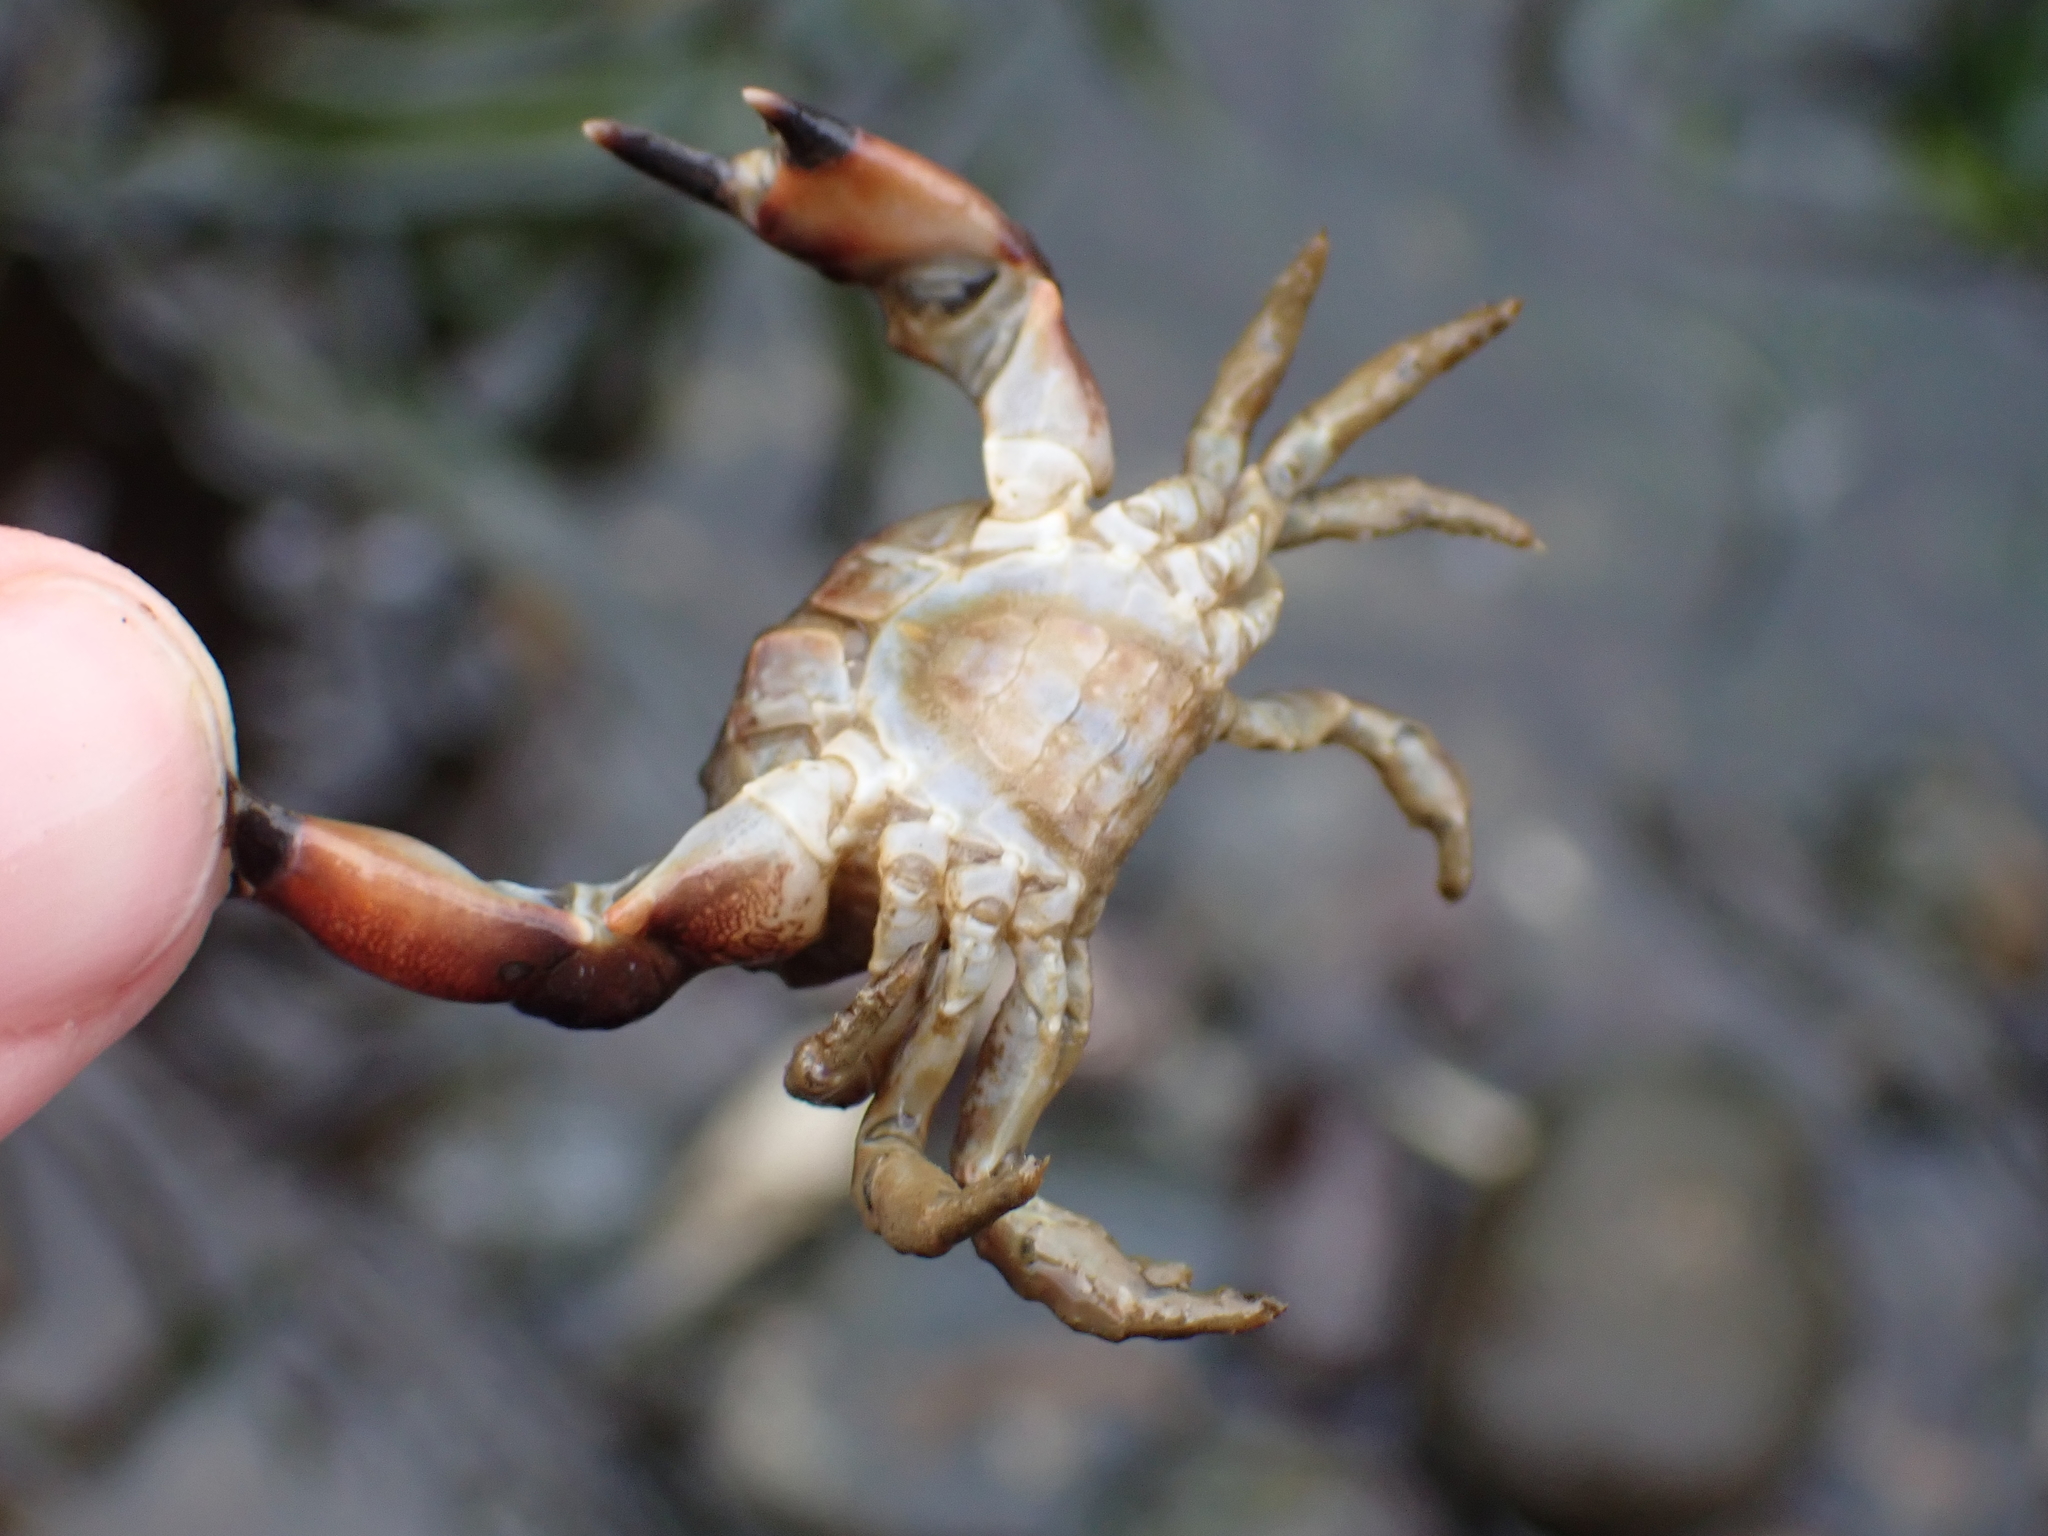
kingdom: Animalia
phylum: Arthropoda
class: Malacostraca
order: Decapoda
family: Panopeidae
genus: Lophopanopeus
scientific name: Lophopanopeus bellus
